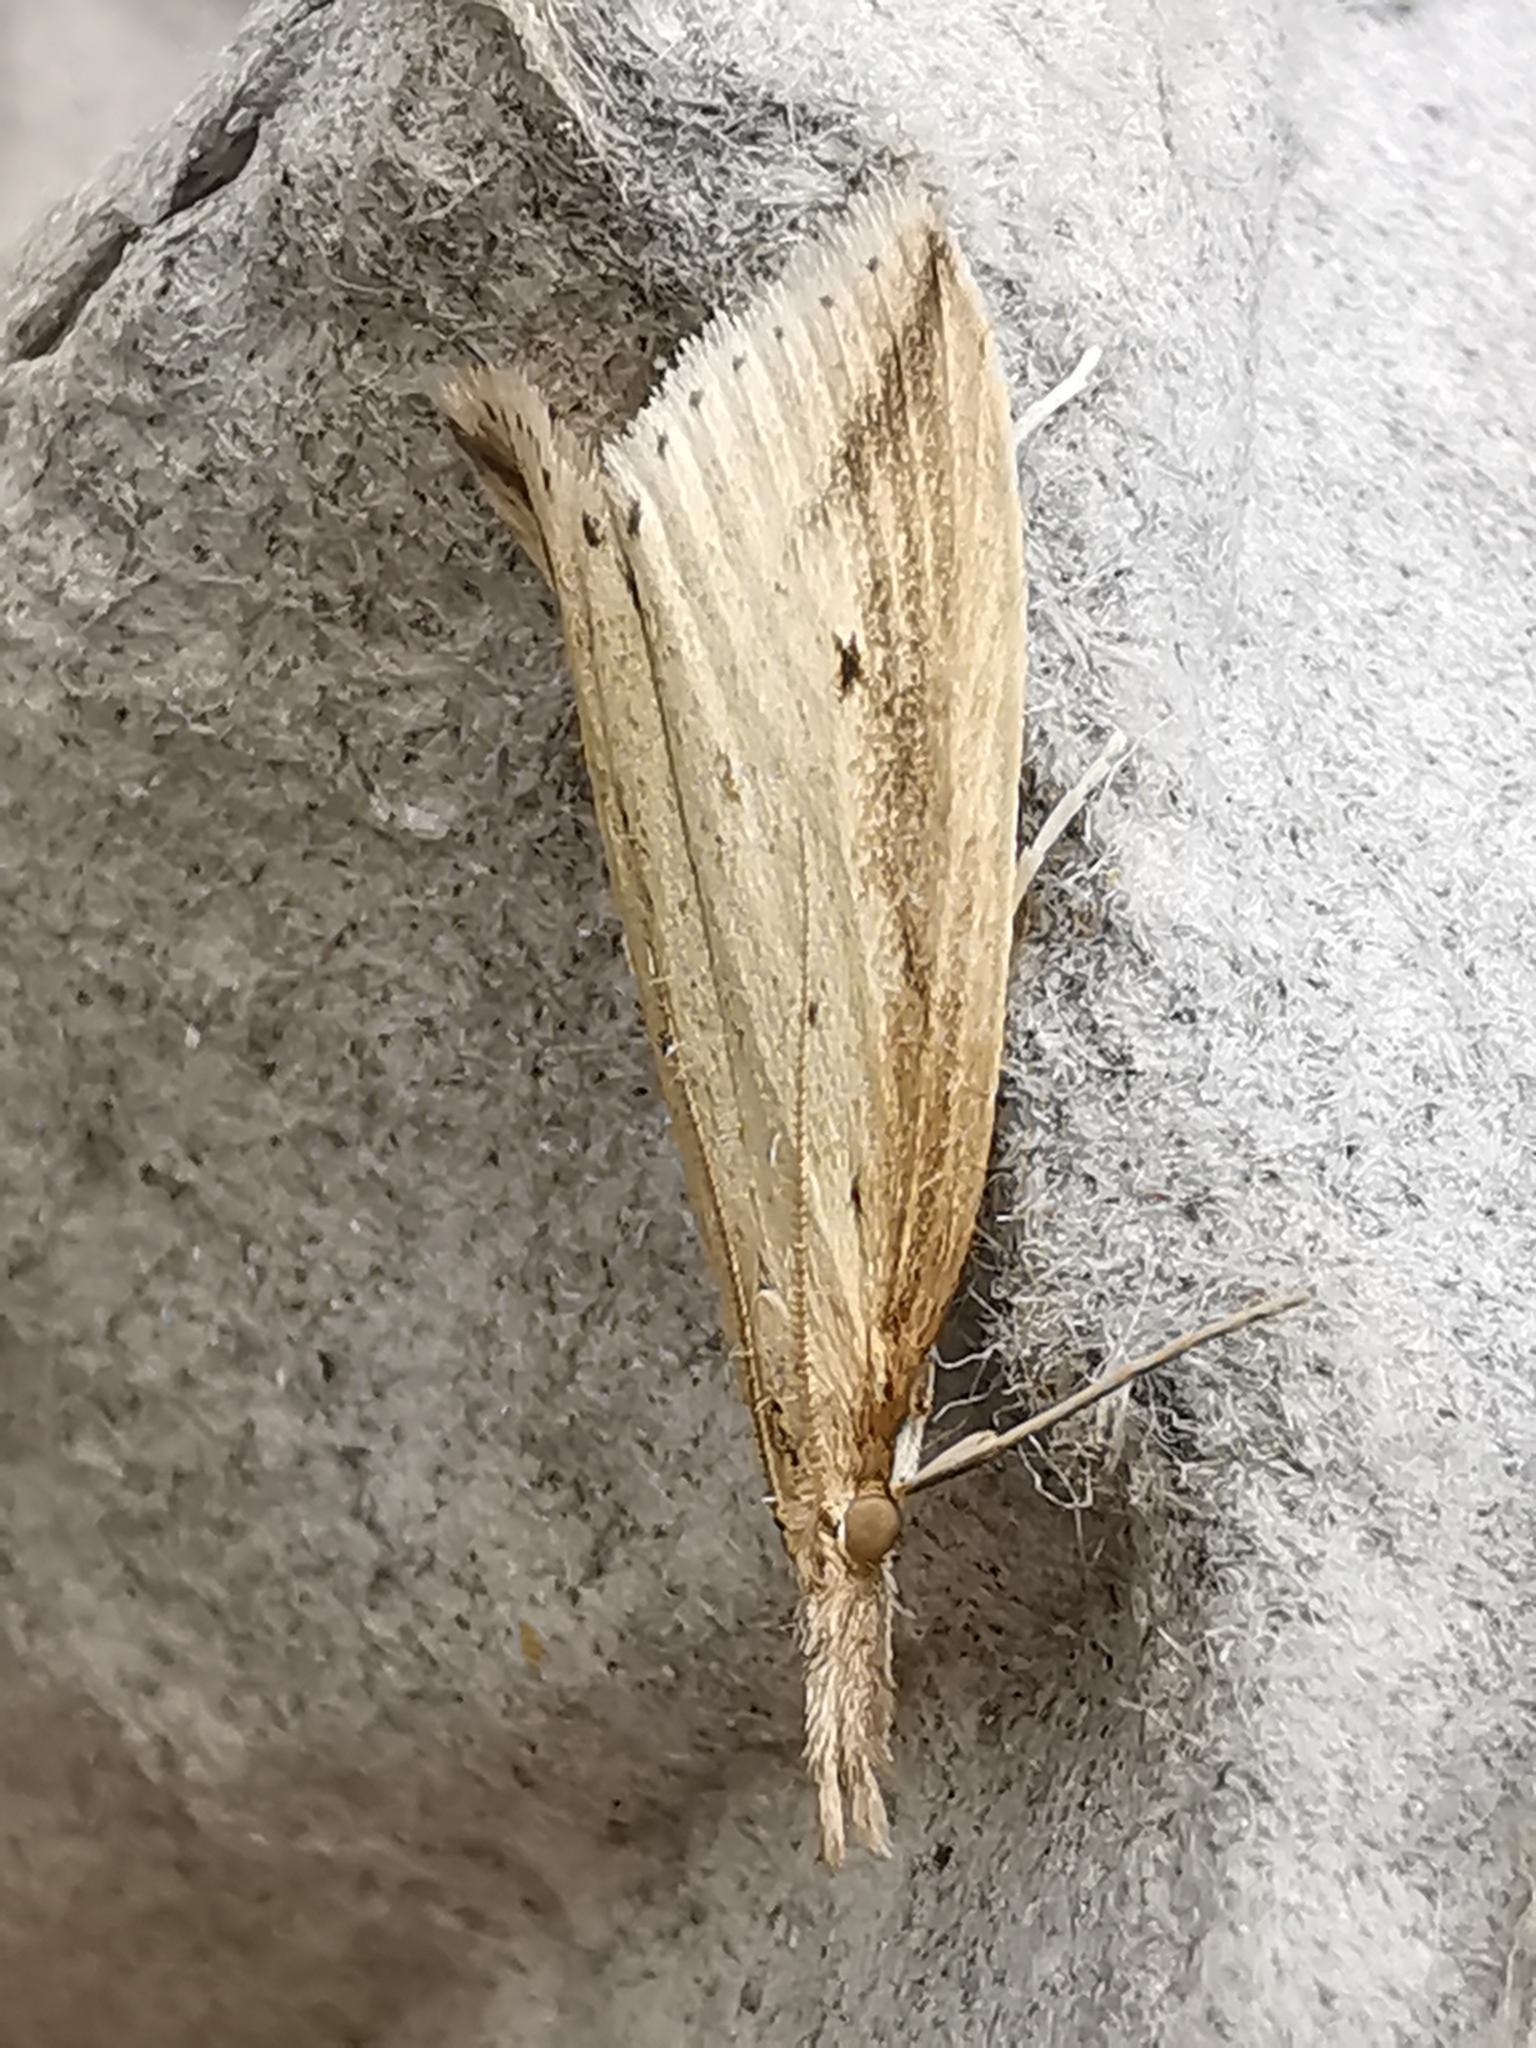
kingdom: Animalia
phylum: Arthropoda
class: Insecta
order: Lepidoptera
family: Crambidae
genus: Donacaula
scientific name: Donacaula forficella
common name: Pale water-veneer
